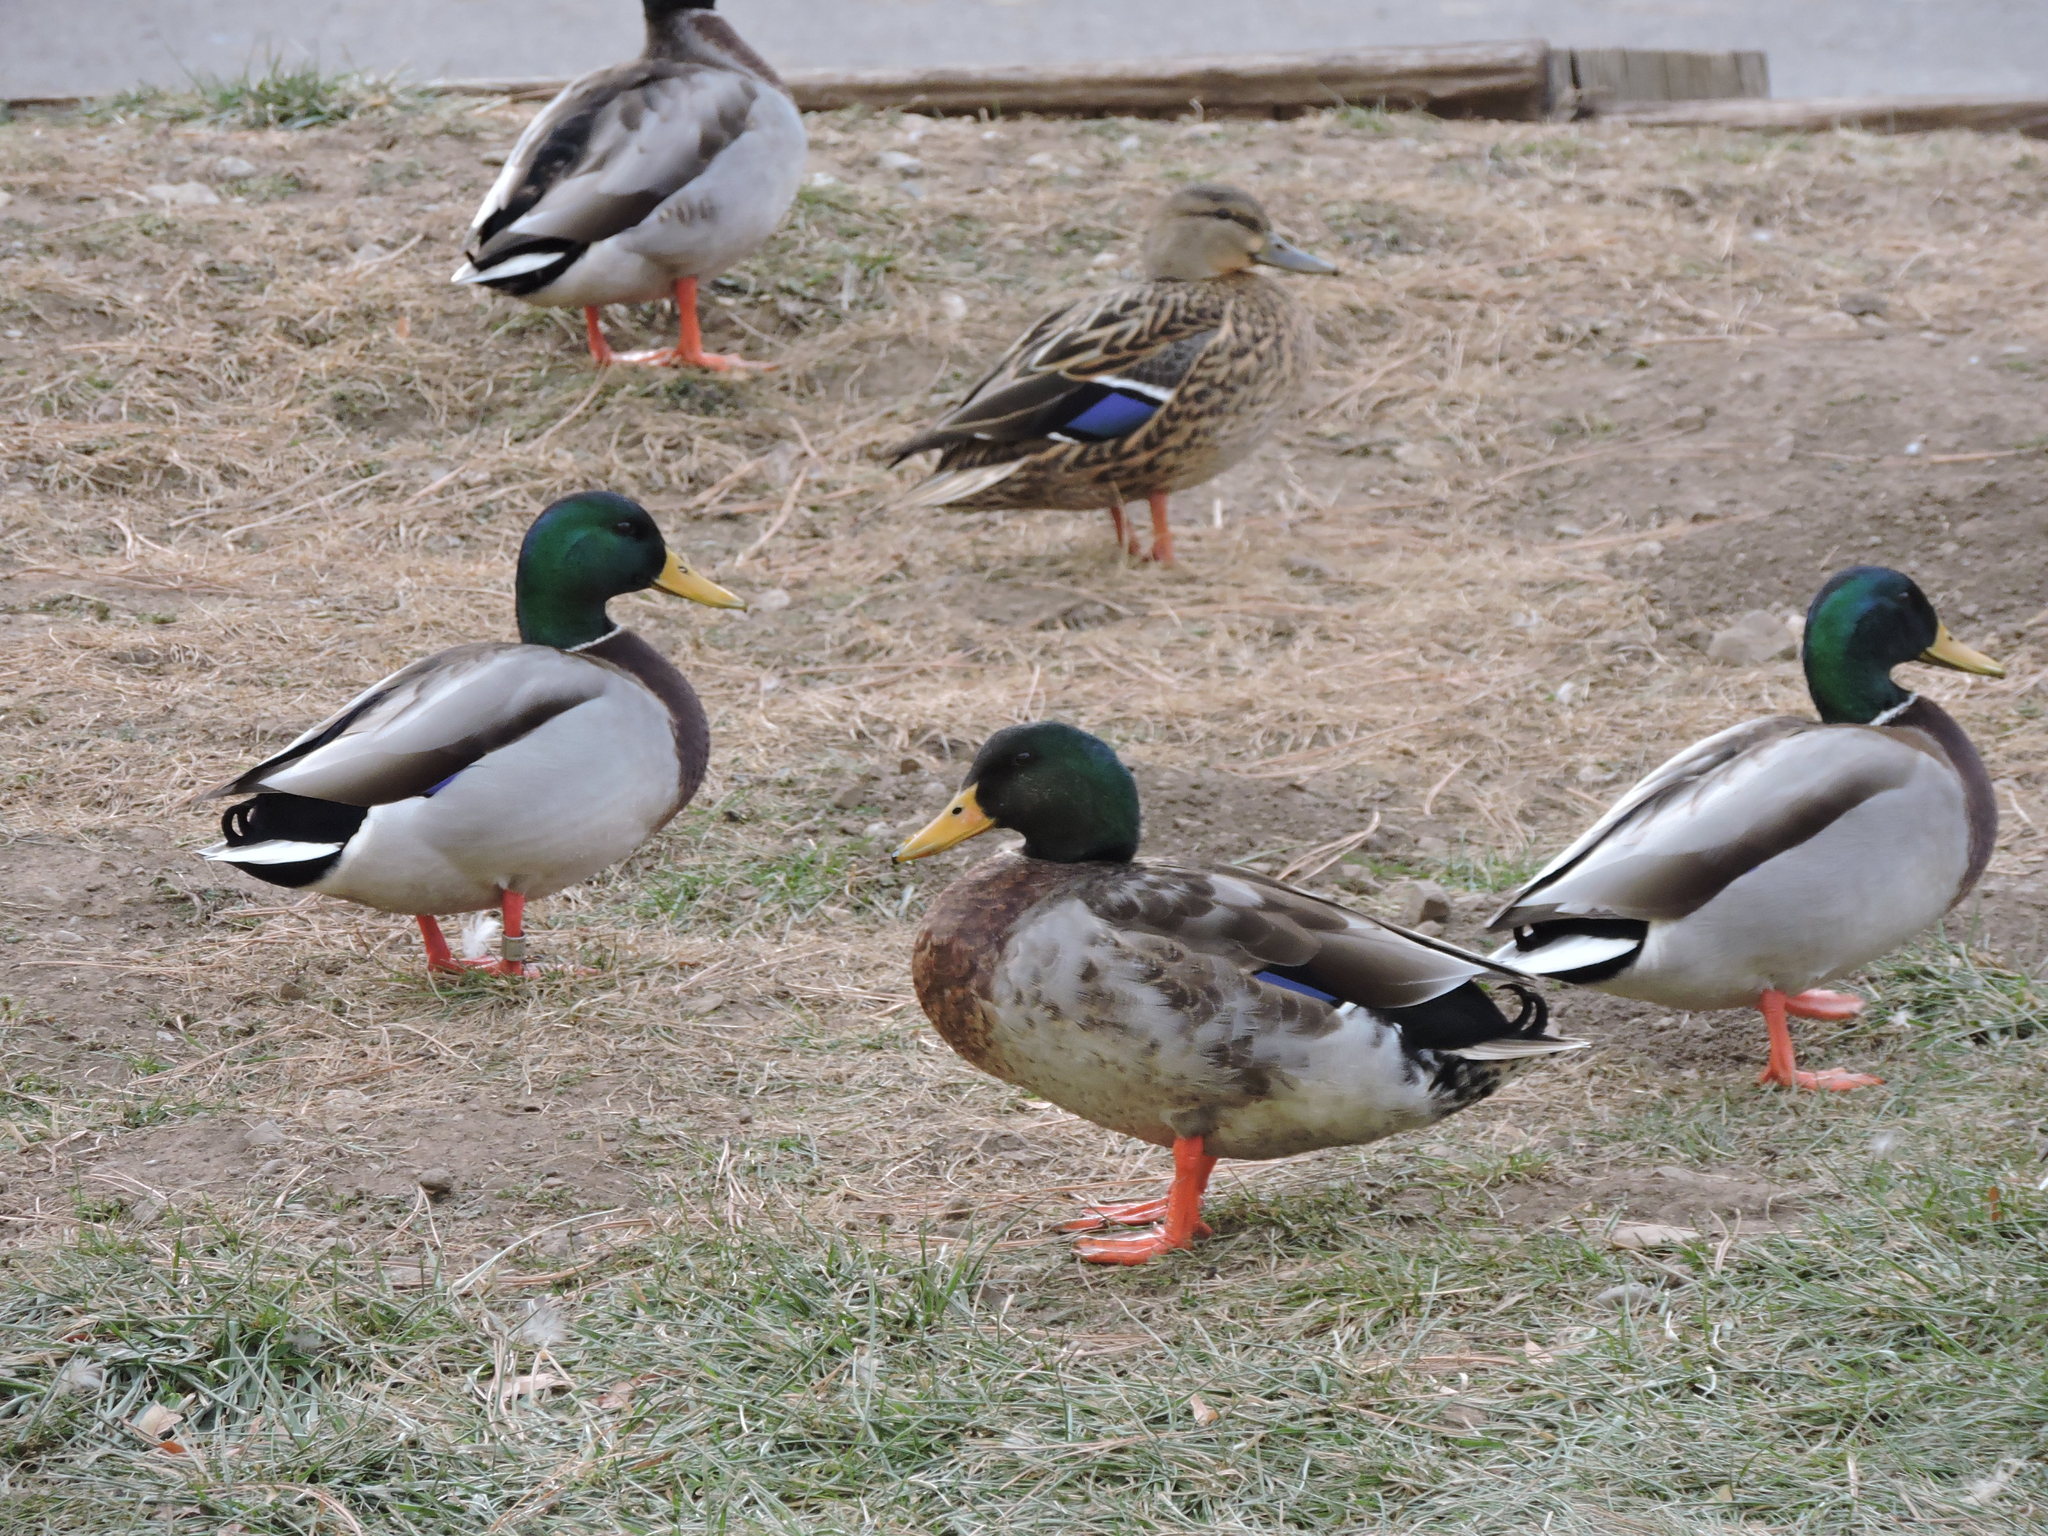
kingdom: Animalia
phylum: Chordata
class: Aves
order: Anseriformes
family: Anatidae
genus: Anas
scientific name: Anas platyrhynchos
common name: Mallard
